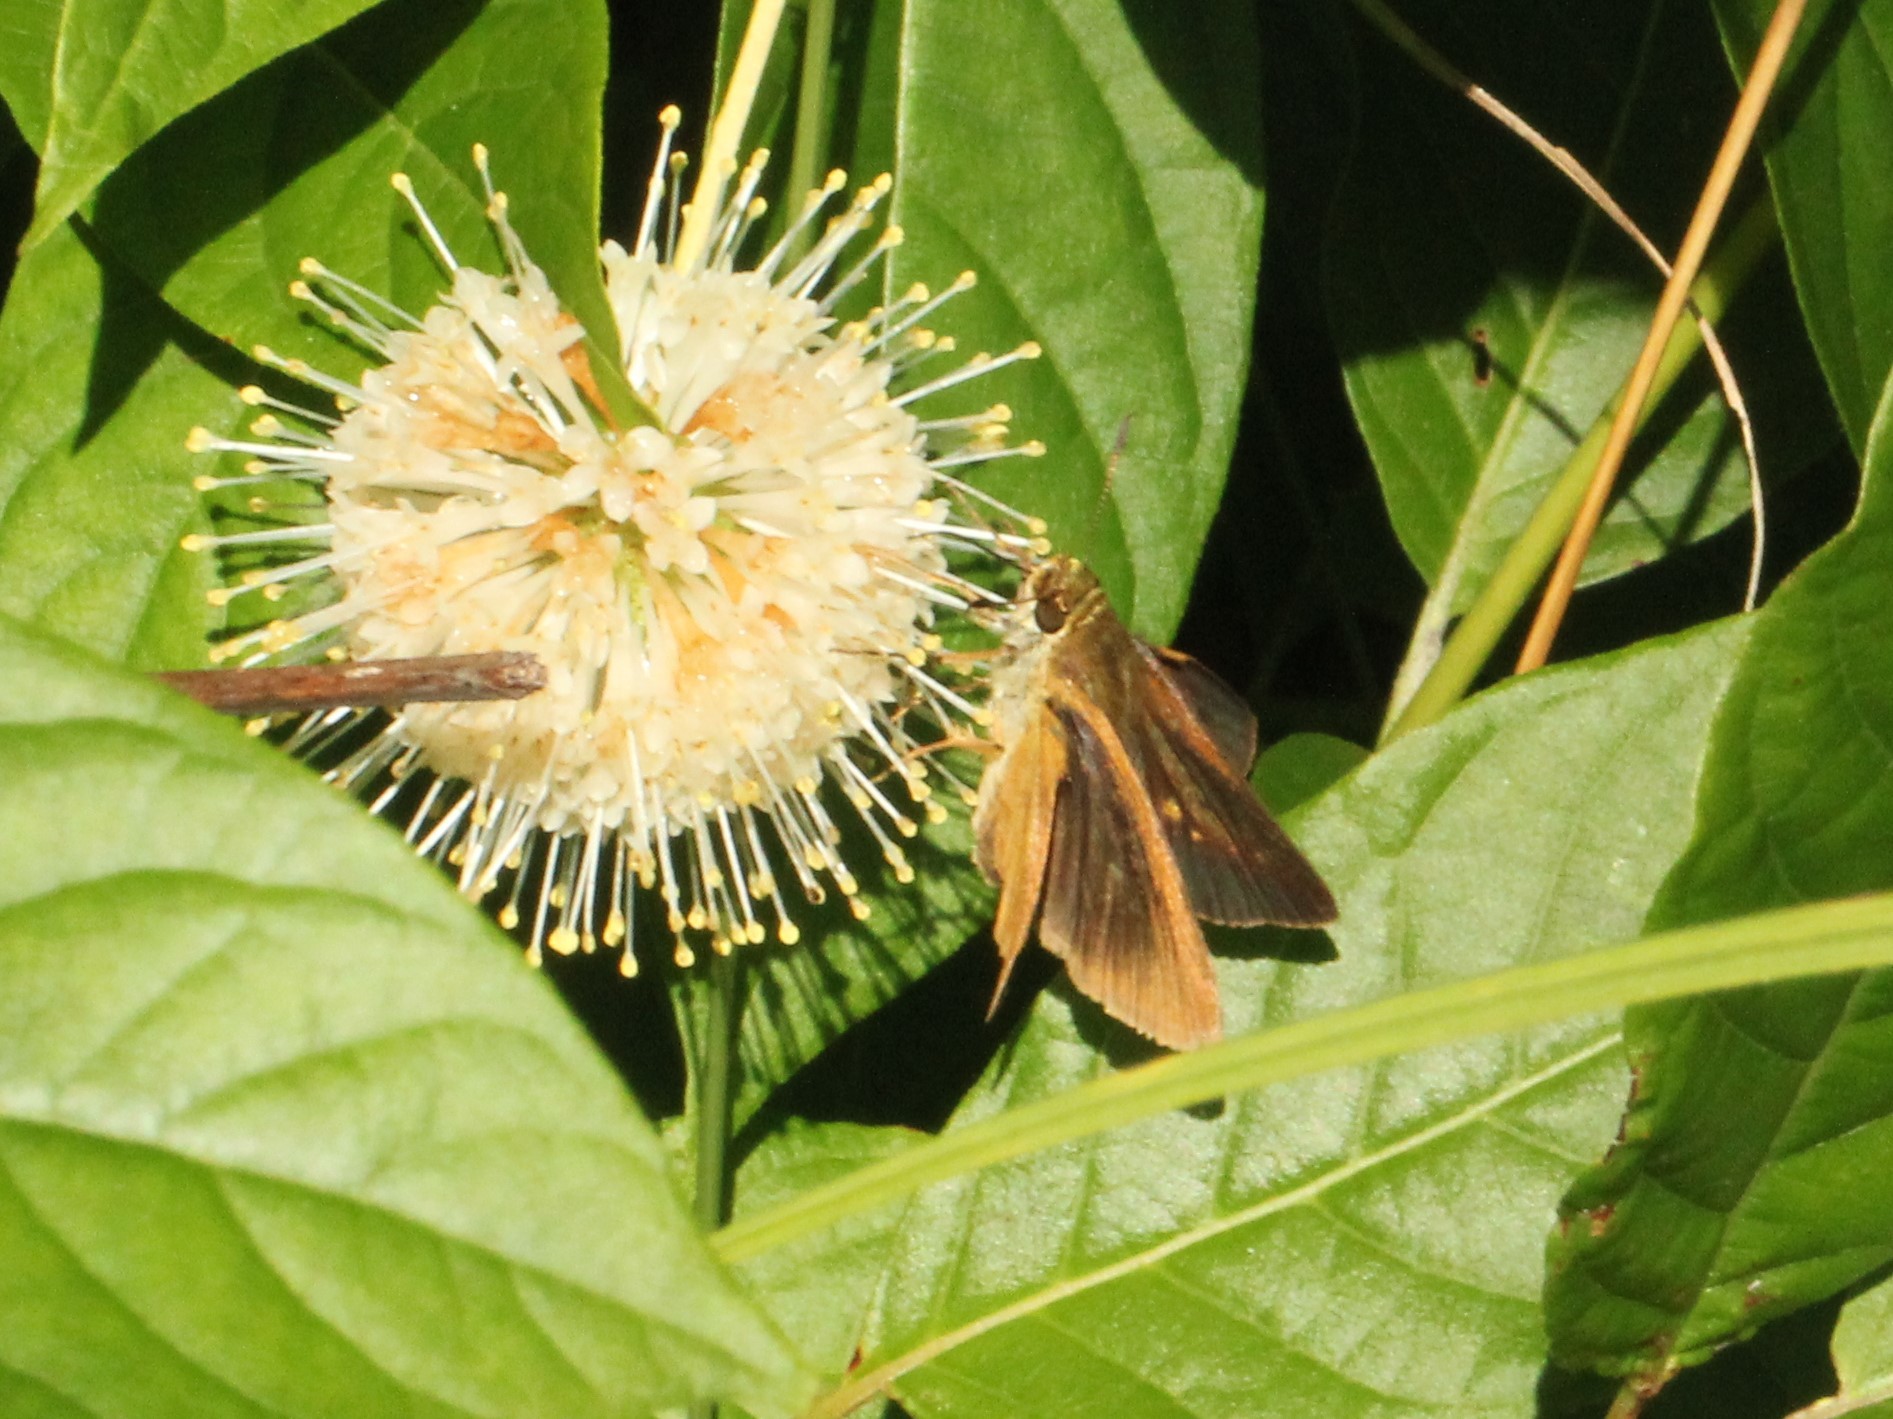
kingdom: Animalia
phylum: Arthropoda
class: Insecta
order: Lepidoptera
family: Hesperiidae
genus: Euphyes
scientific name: Euphyes dukesi
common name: Dukes' skipper
